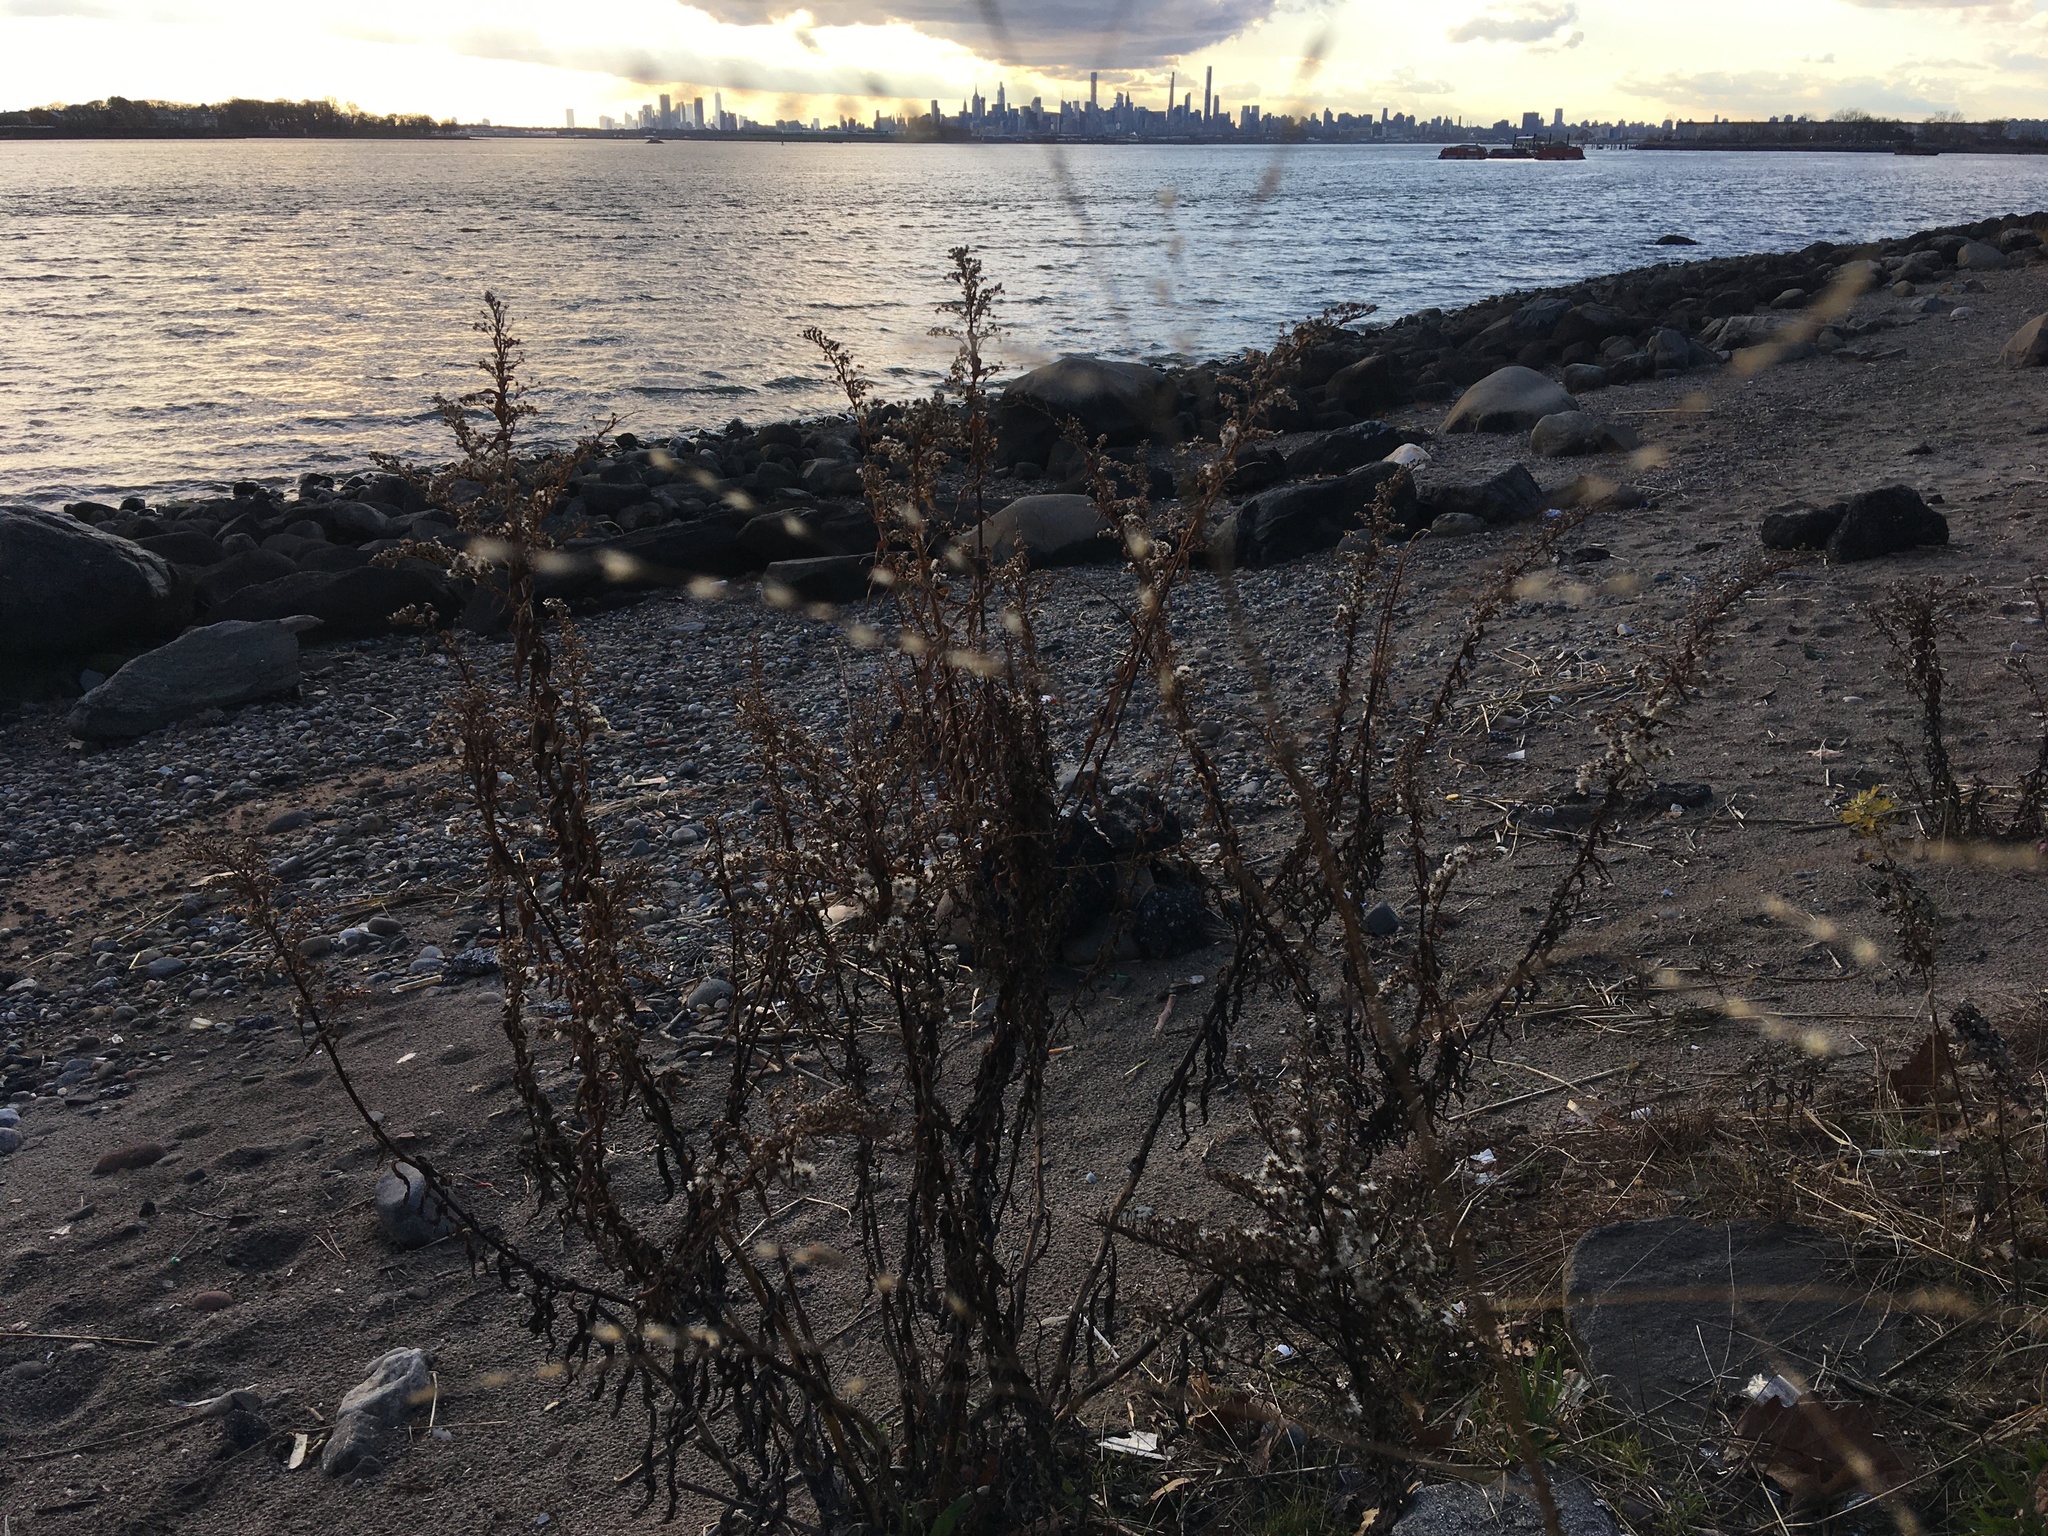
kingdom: Plantae
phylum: Tracheophyta
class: Magnoliopsida
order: Asterales
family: Asteraceae
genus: Solidago
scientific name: Solidago sempervirens
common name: Salt-marsh goldenrod
